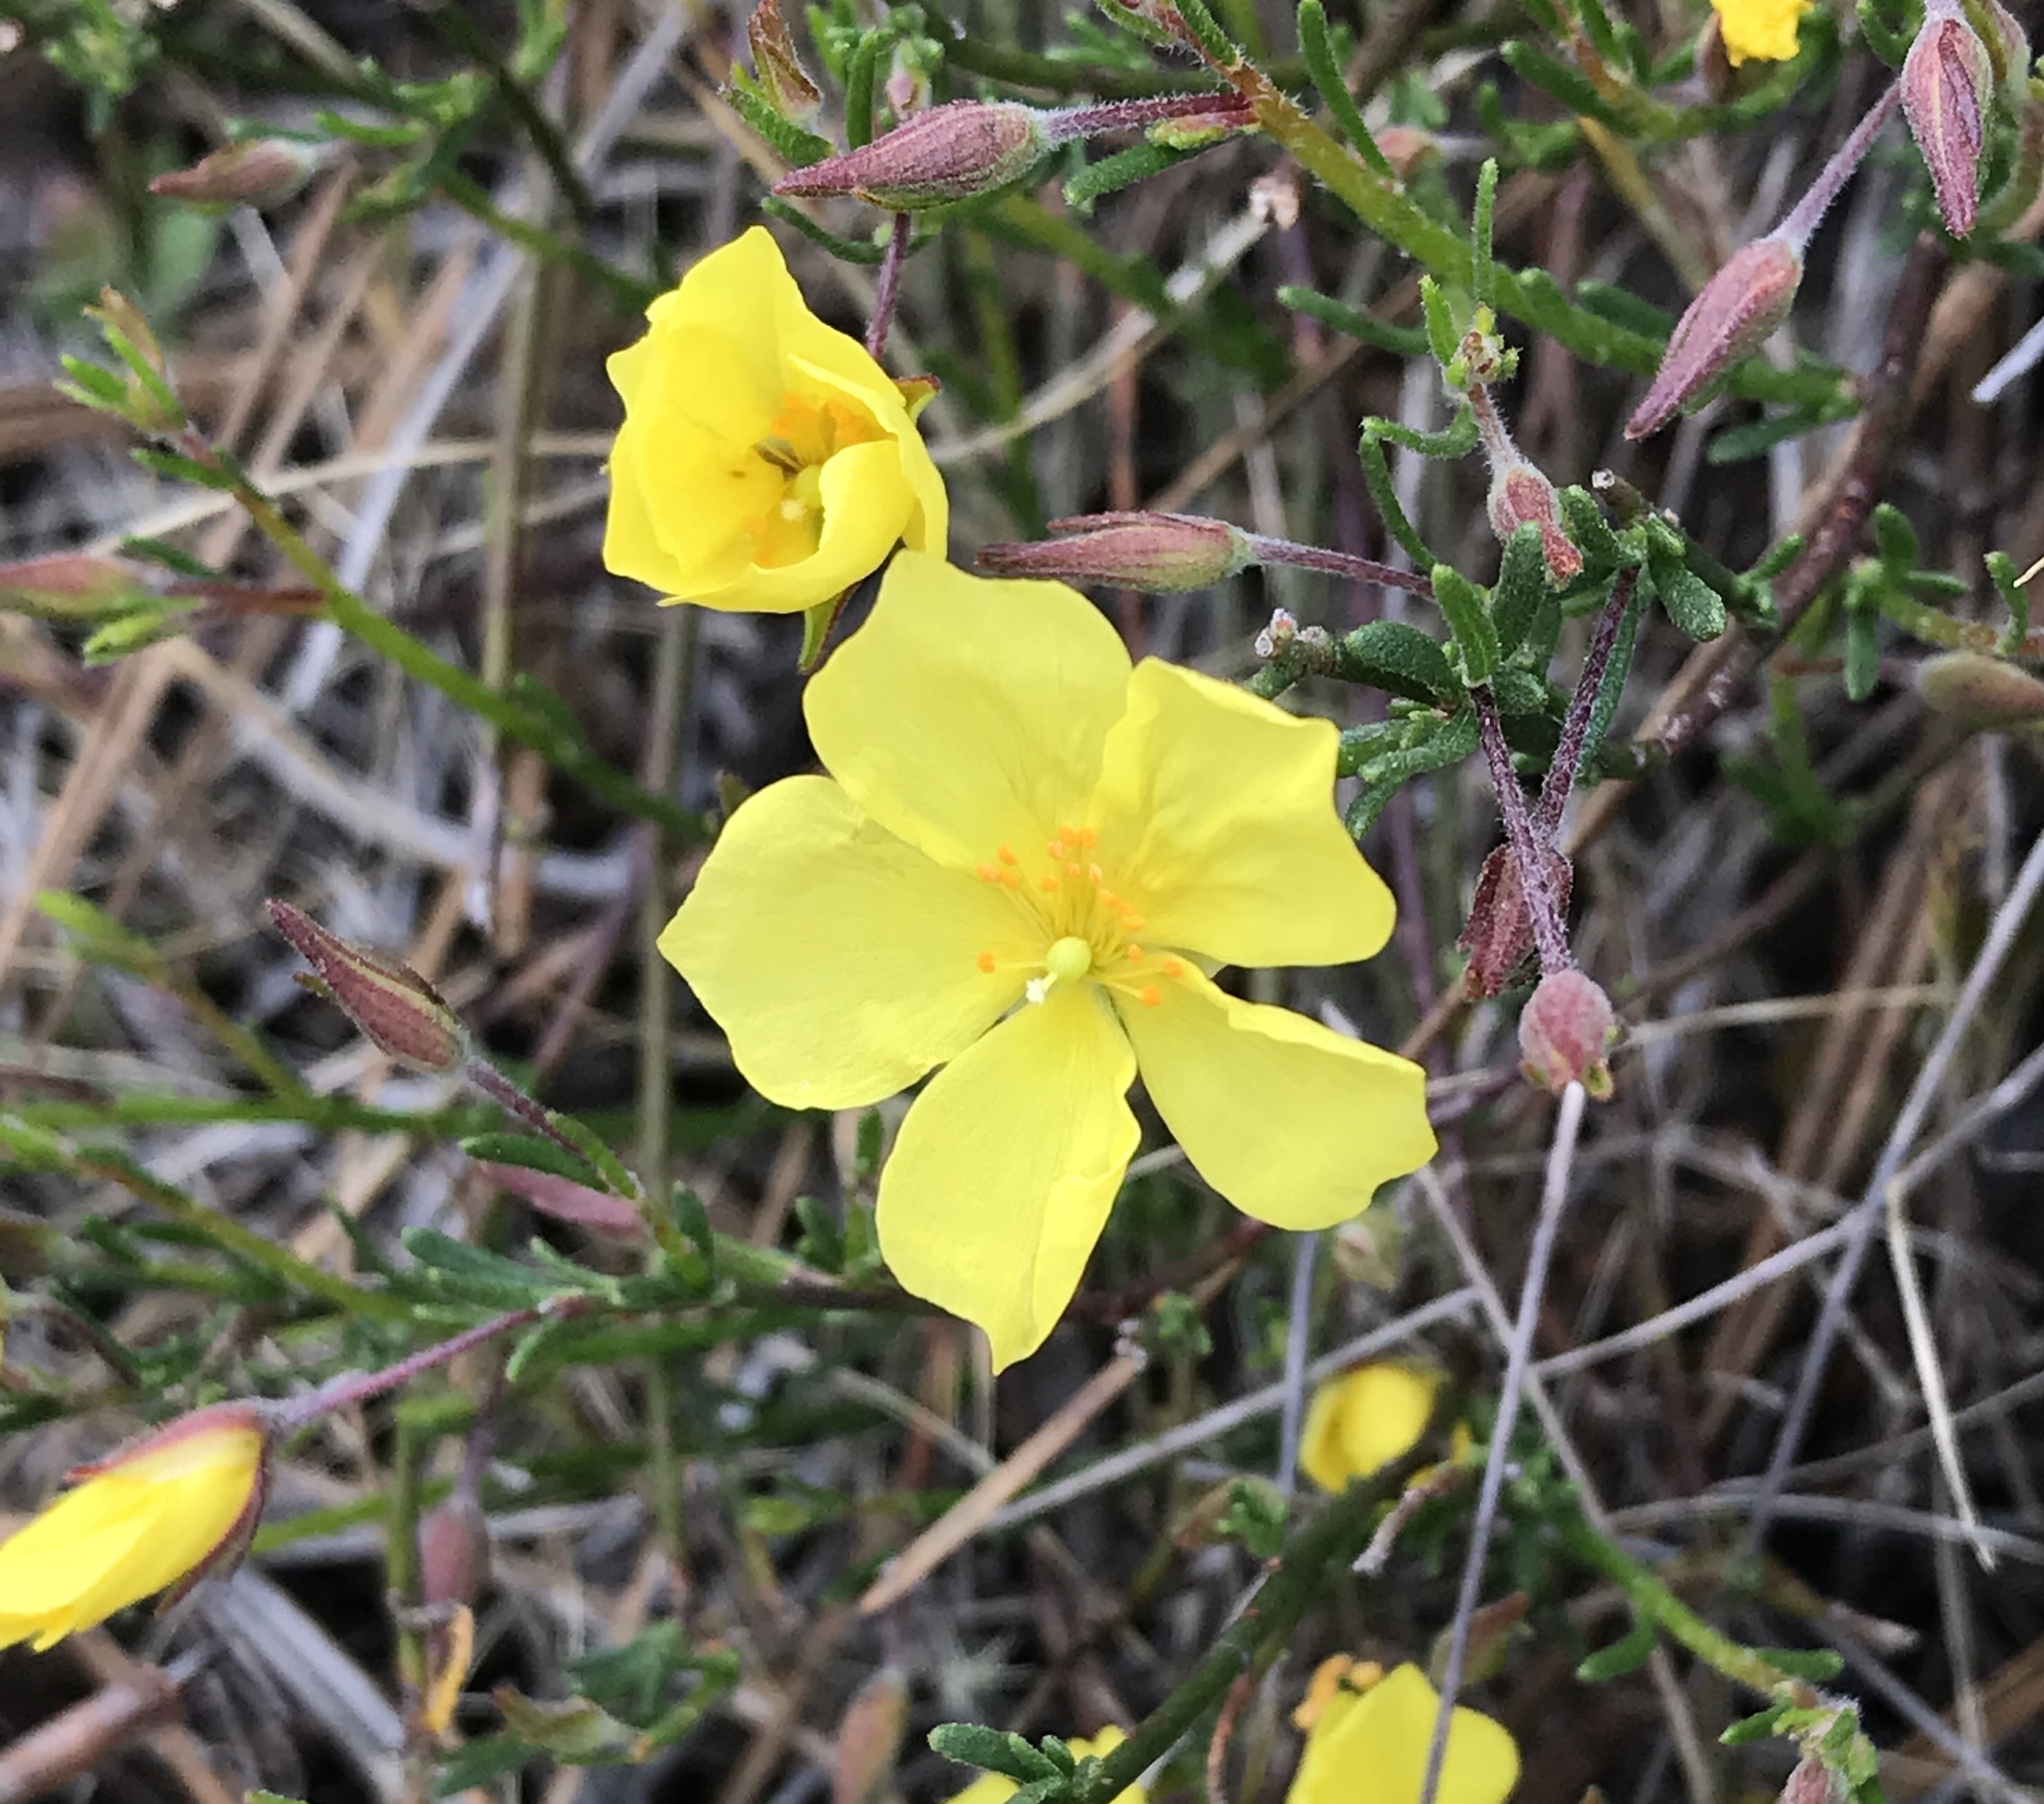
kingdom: Plantae
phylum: Tracheophyta
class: Magnoliopsida
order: Malvales
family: Cistaceae
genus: Crocanthemum
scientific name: Crocanthemum scoparium
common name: Broom-rose
